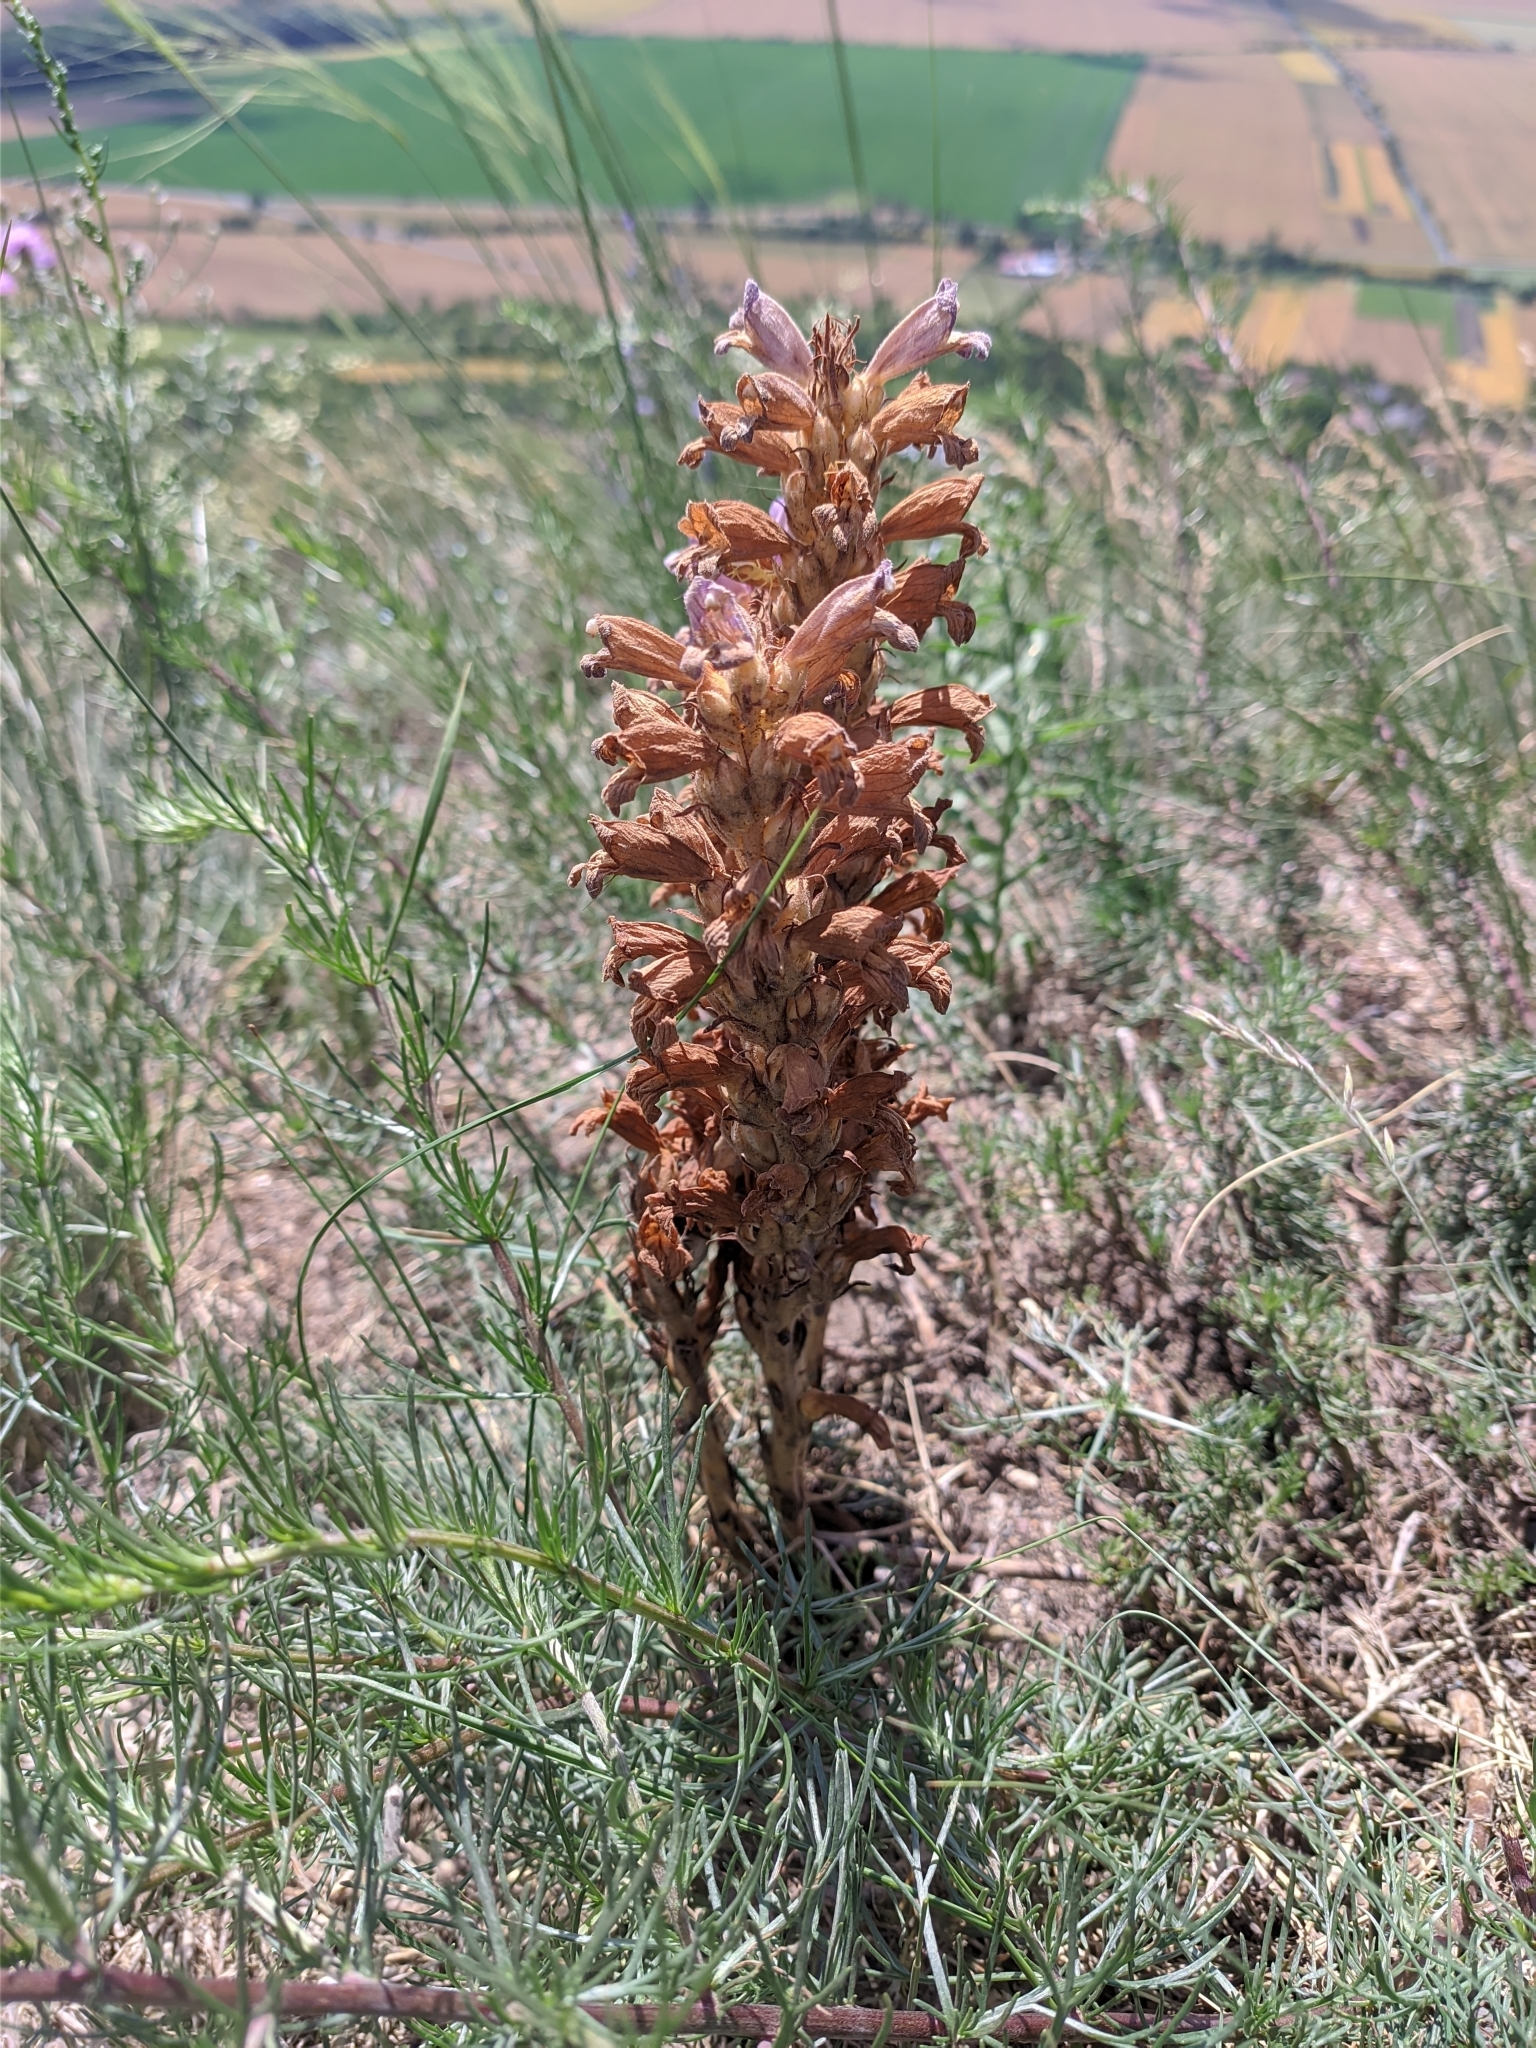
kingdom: Plantae
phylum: Tracheophyta
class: Magnoliopsida
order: Lamiales
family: Orobanchaceae
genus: Phelipanche
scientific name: Phelipanche arenaria
